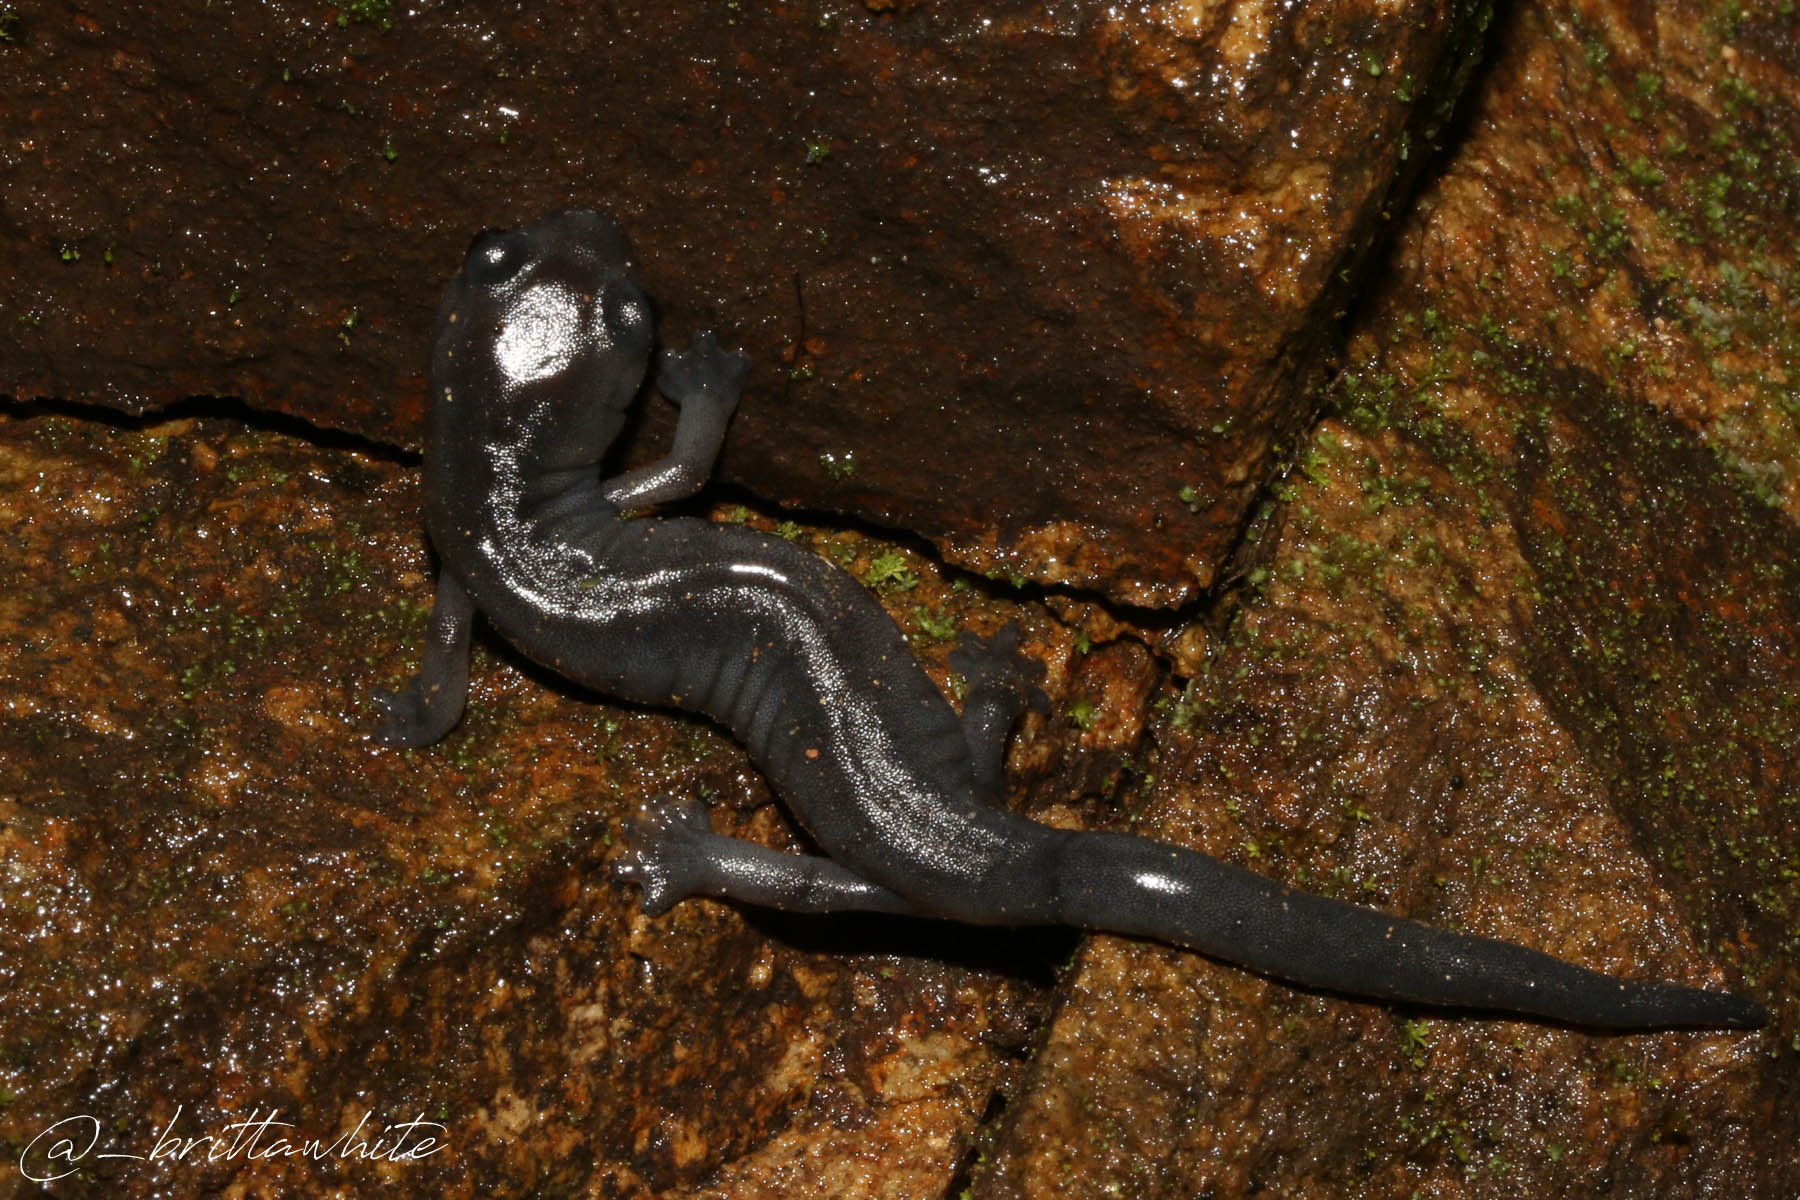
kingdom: Animalia
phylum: Chordata
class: Amphibia
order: Caudata
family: Plethodontidae
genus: Bolitoglossa
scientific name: Bolitoglossa macrinii
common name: Oaxacan mushroomtongue salamander
